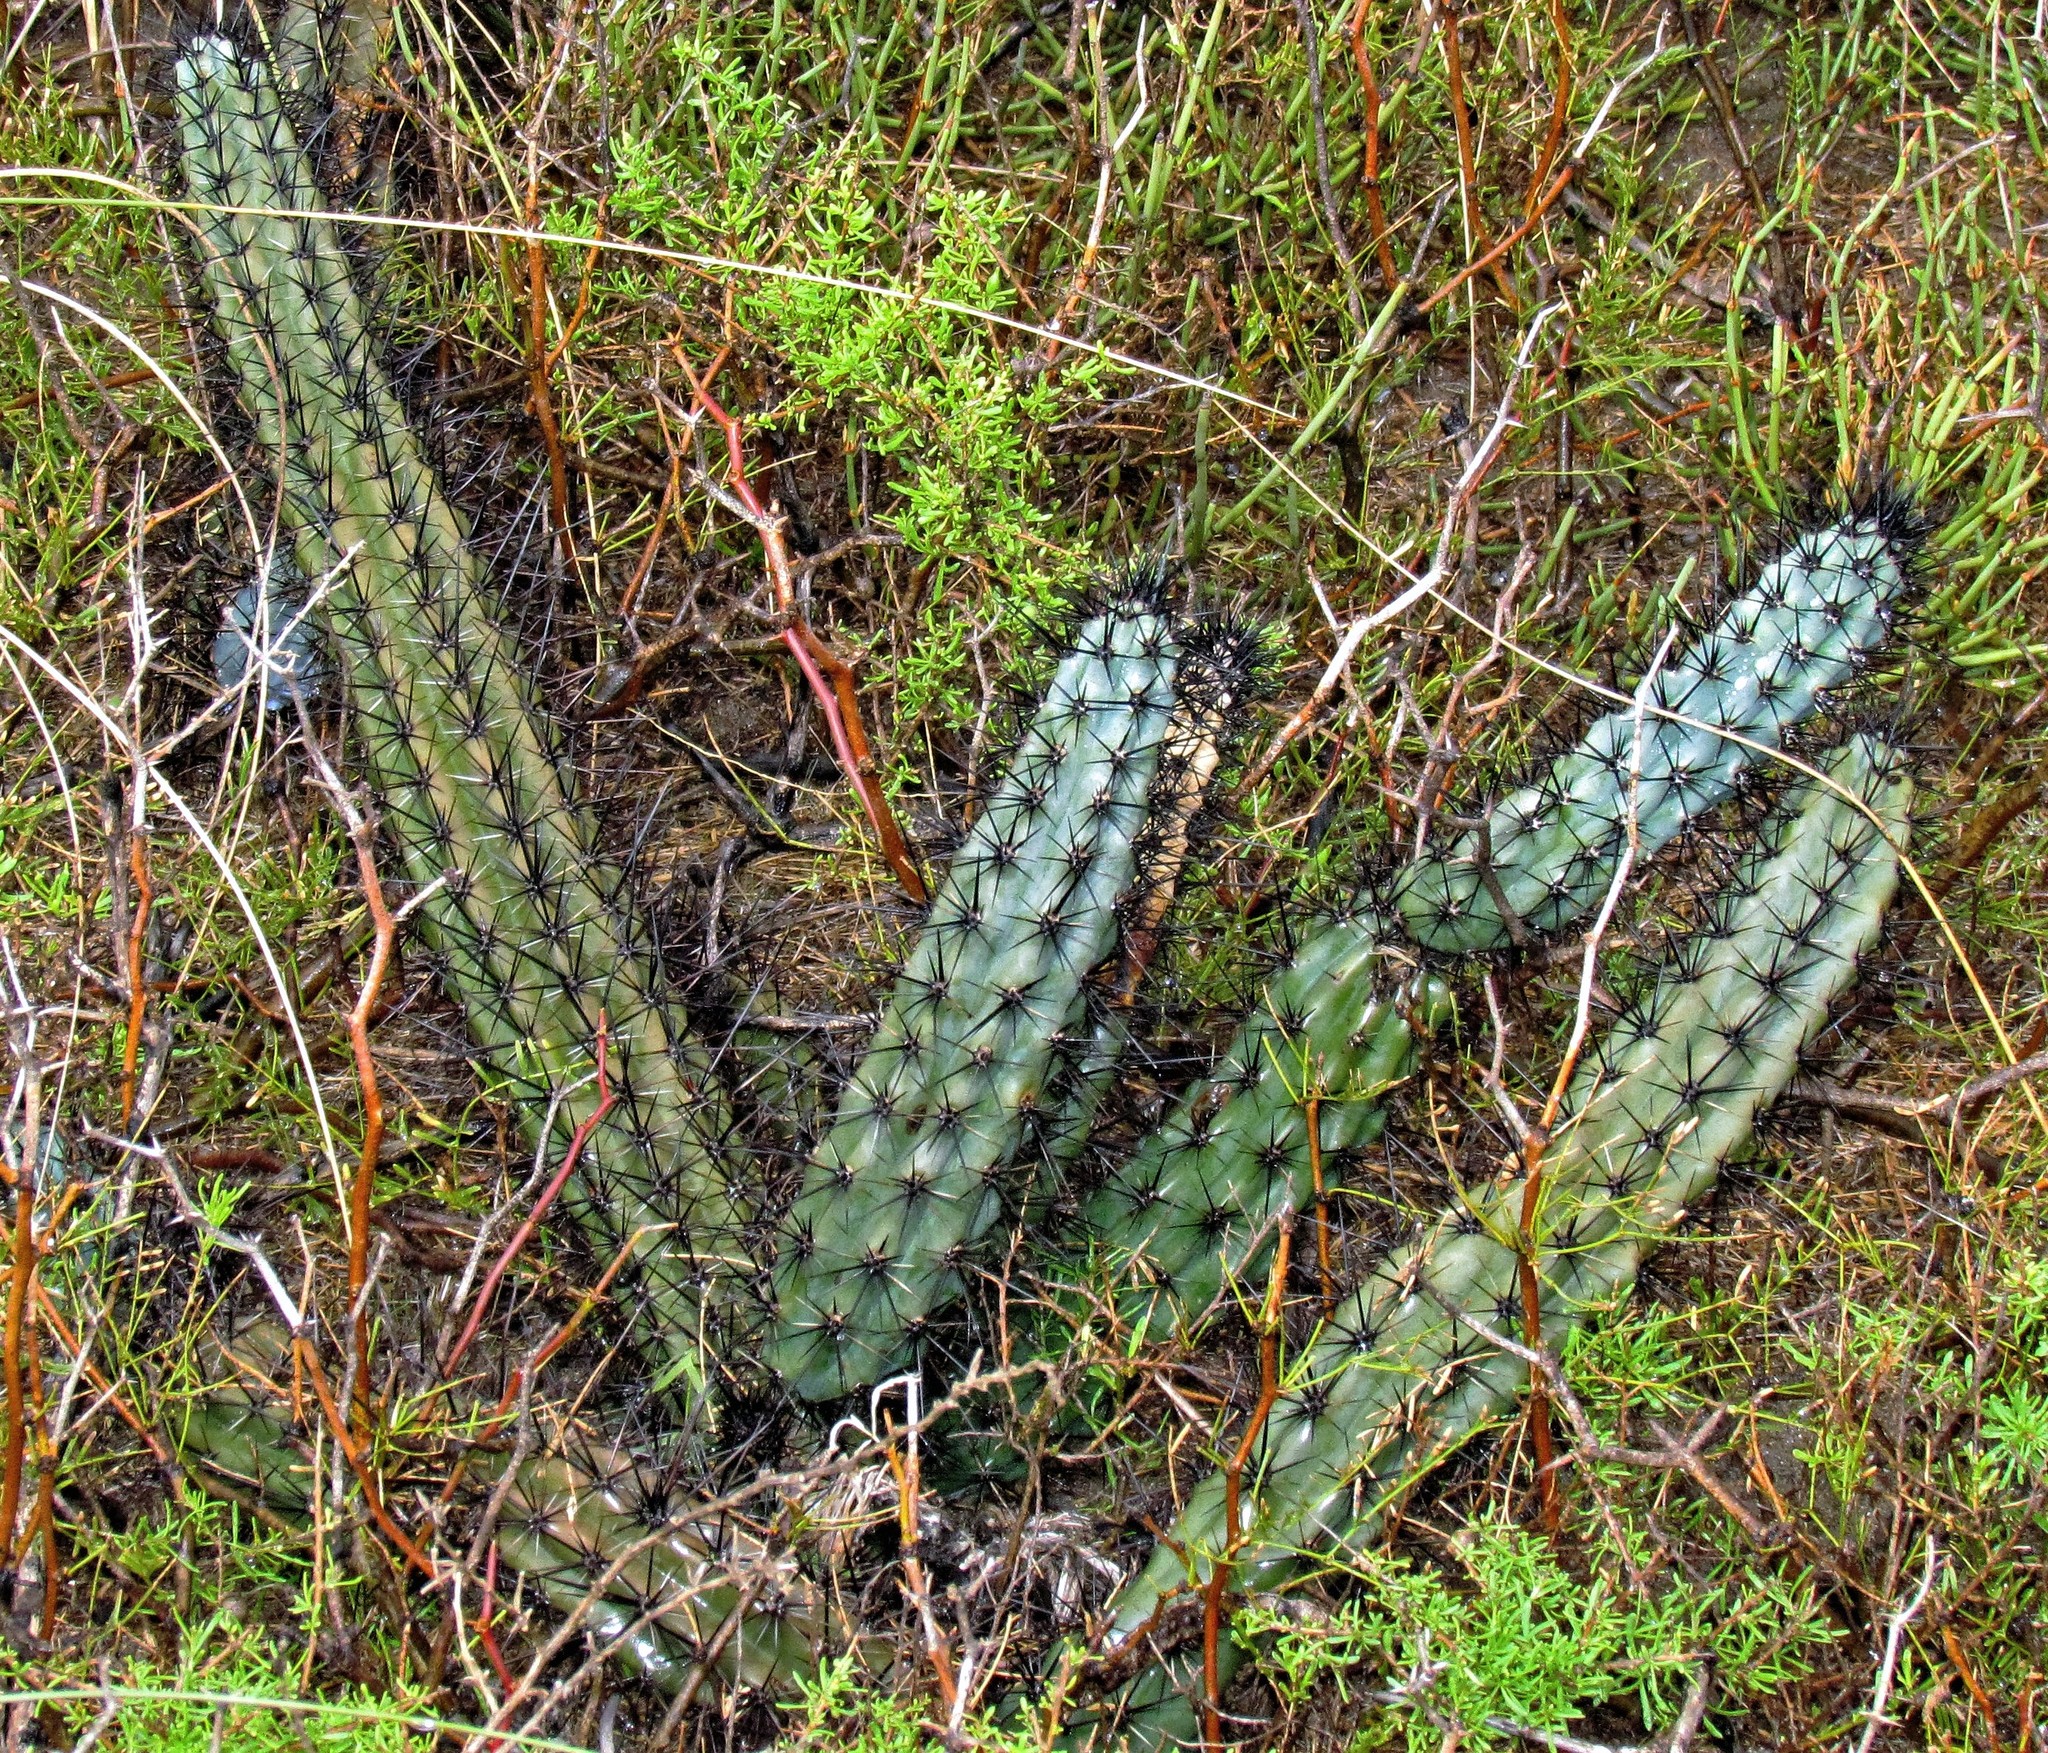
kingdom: Plantae
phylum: Tracheophyta
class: Magnoliopsida
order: Caryophyllales
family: Cactaceae
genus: Cereus
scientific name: Cereus aethiops
